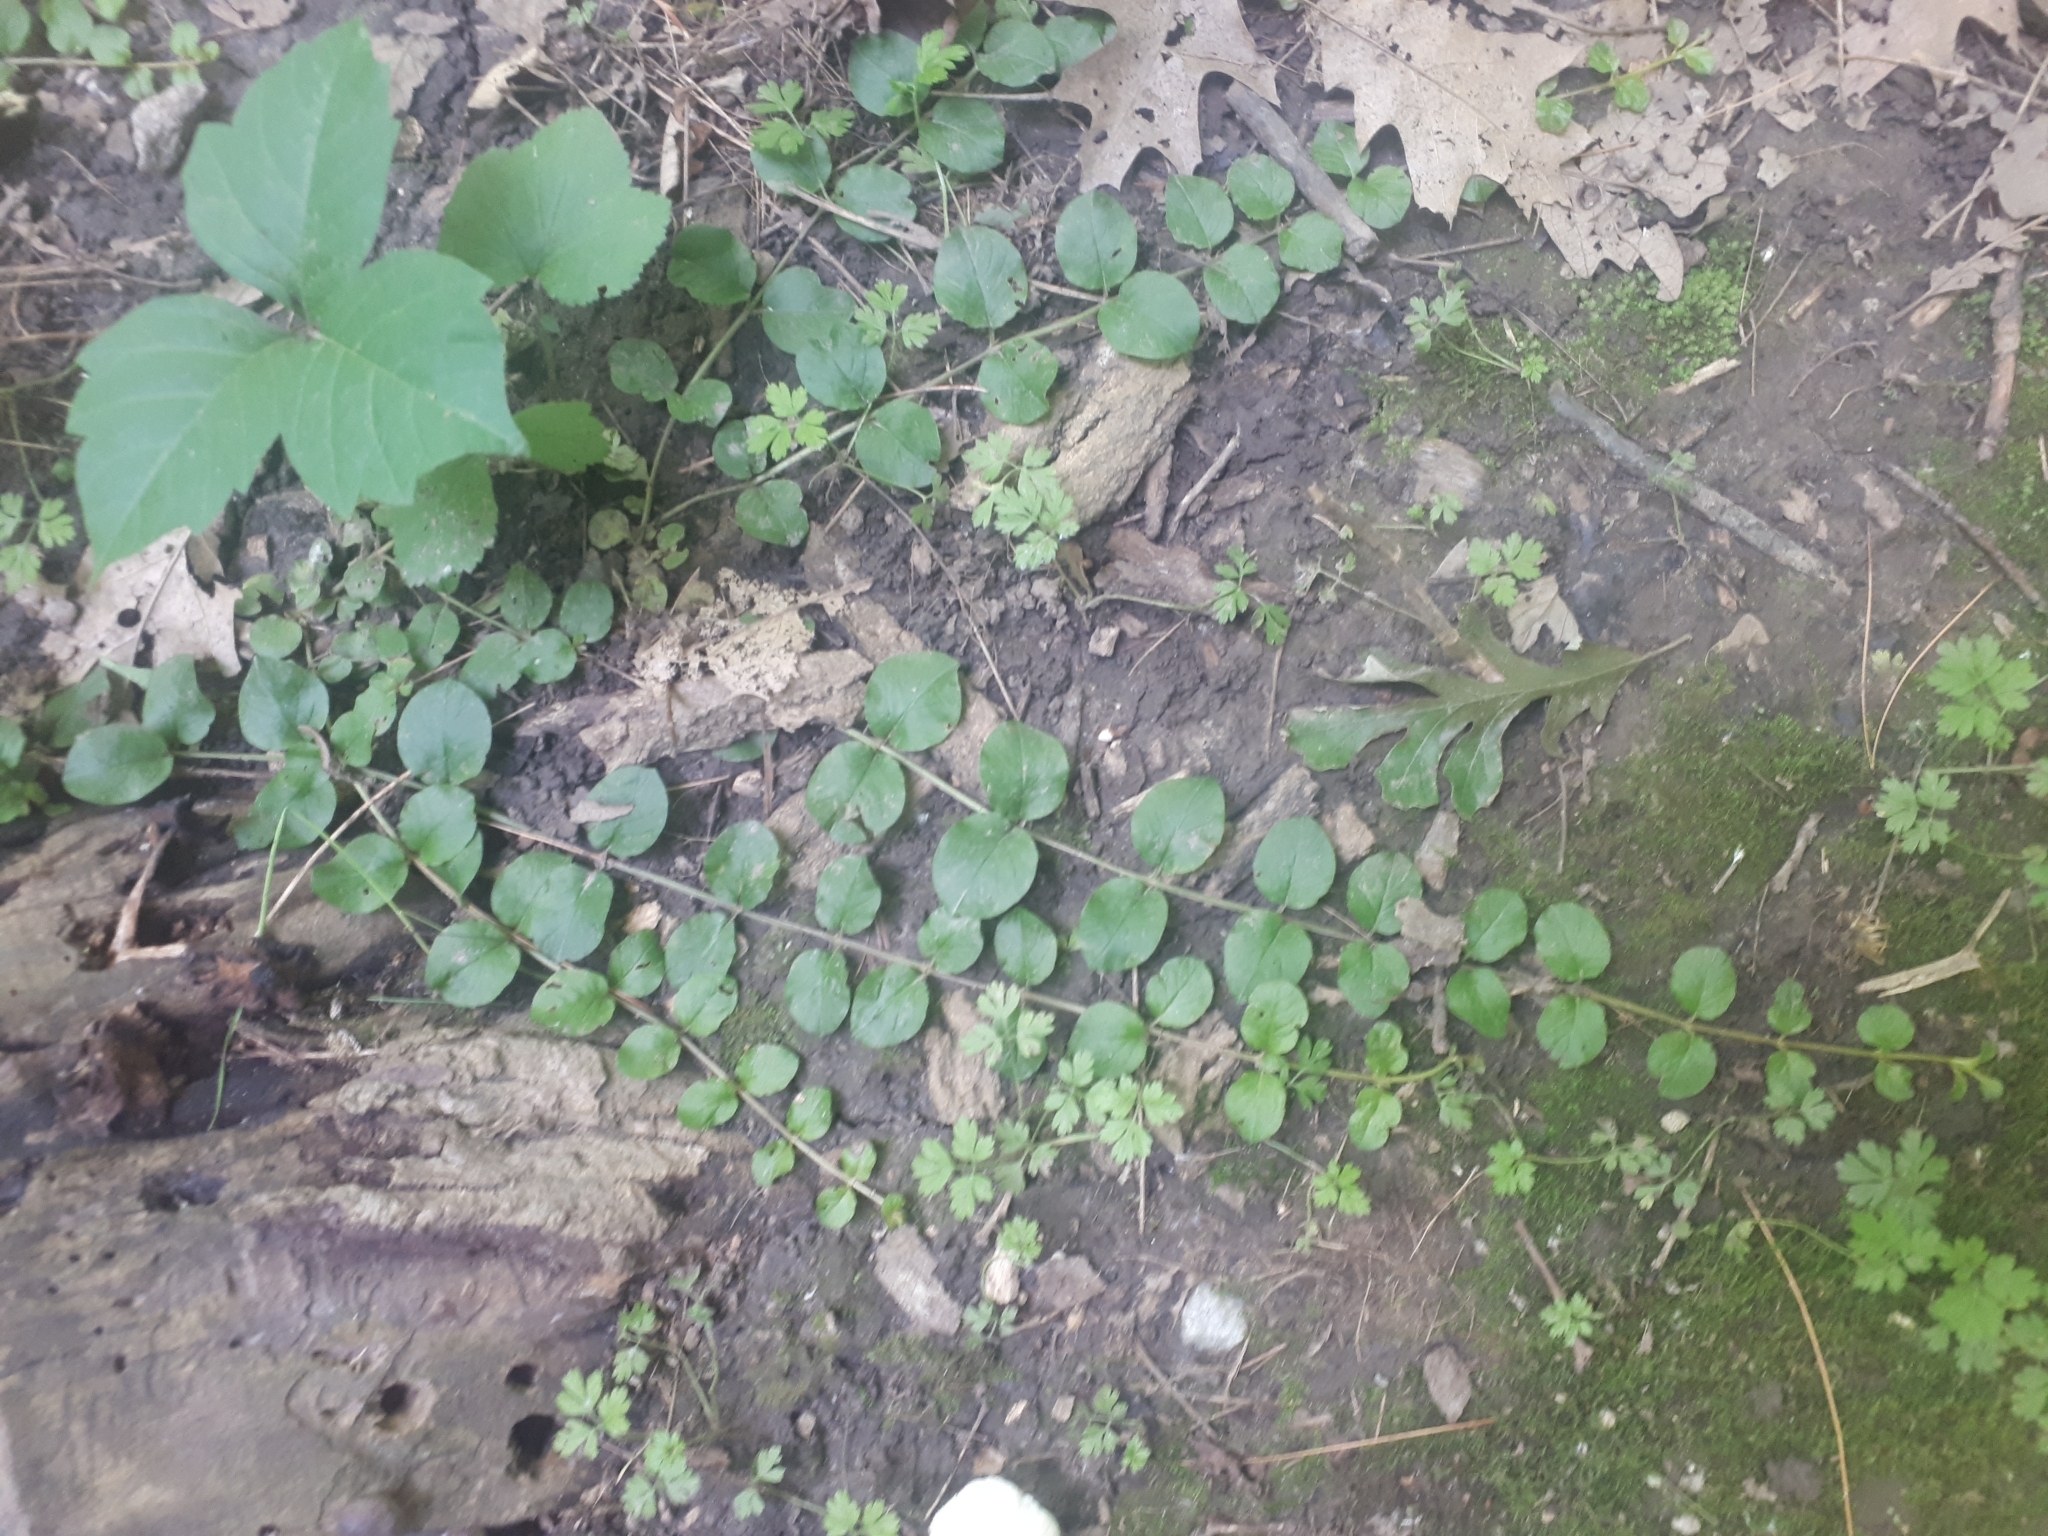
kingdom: Plantae
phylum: Tracheophyta
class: Magnoliopsida
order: Ericales
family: Primulaceae
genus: Lysimachia
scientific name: Lysimachia nummularia
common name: Moneywort
